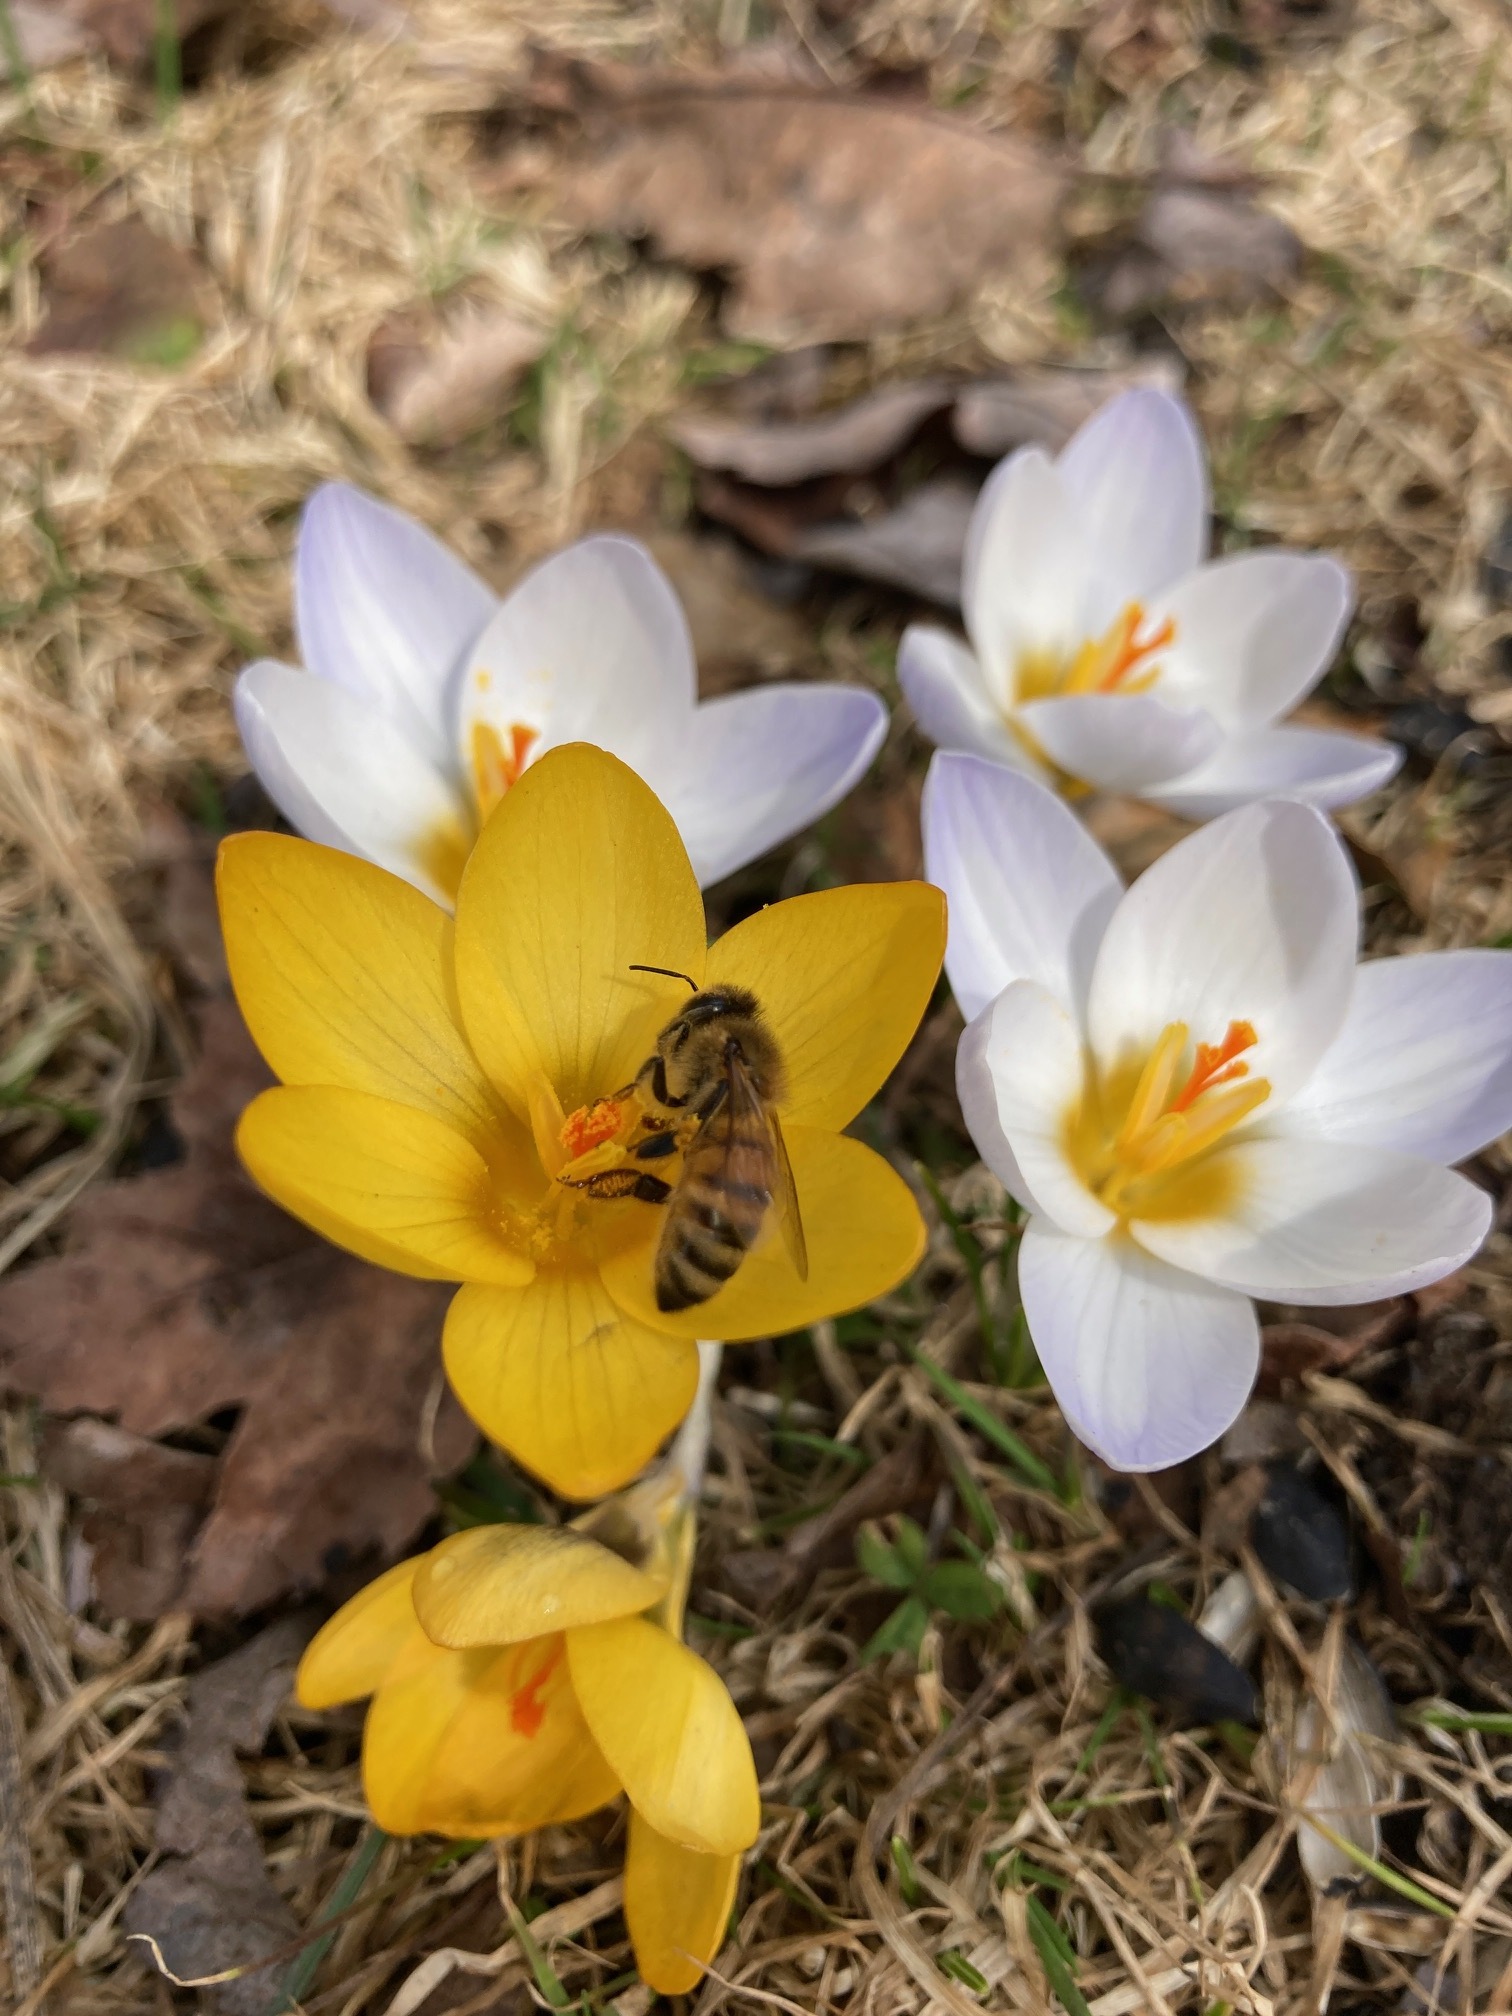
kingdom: Animalia
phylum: Arthropoda
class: Insecta
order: Hymenoptera
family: Apidae
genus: Apis
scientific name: Apis mellifera
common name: Honey bee
